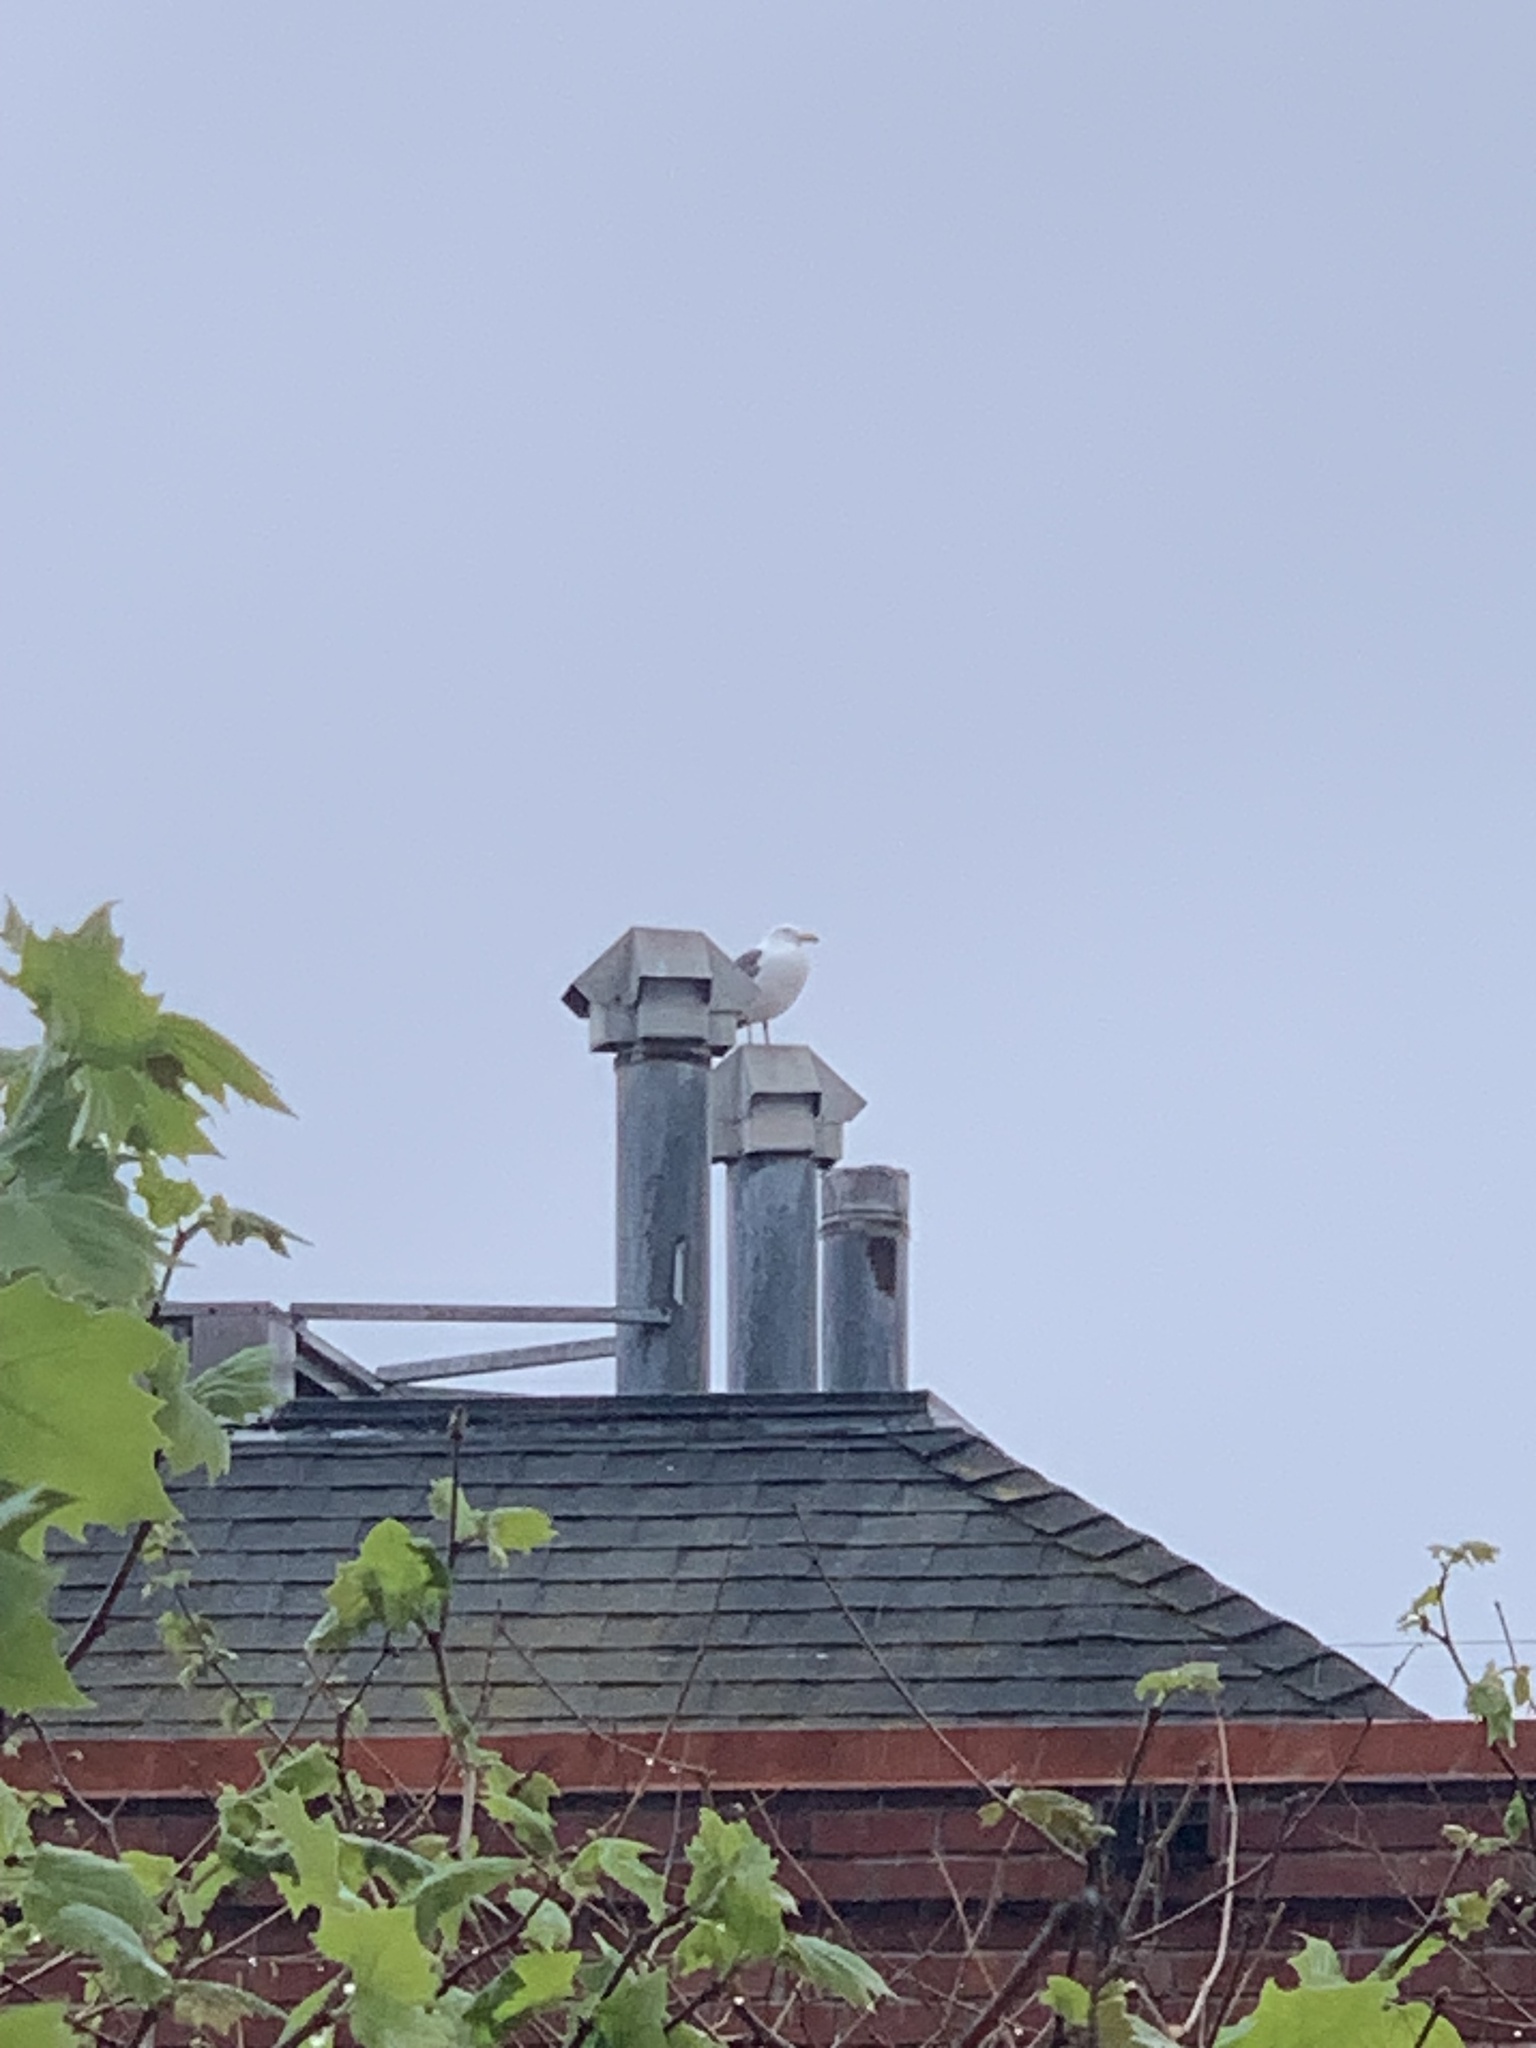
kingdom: Animalia
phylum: Chordata
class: Aves
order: Charadriiformes
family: Laridae
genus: Larus
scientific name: Larus occidentalis
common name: Western gull
